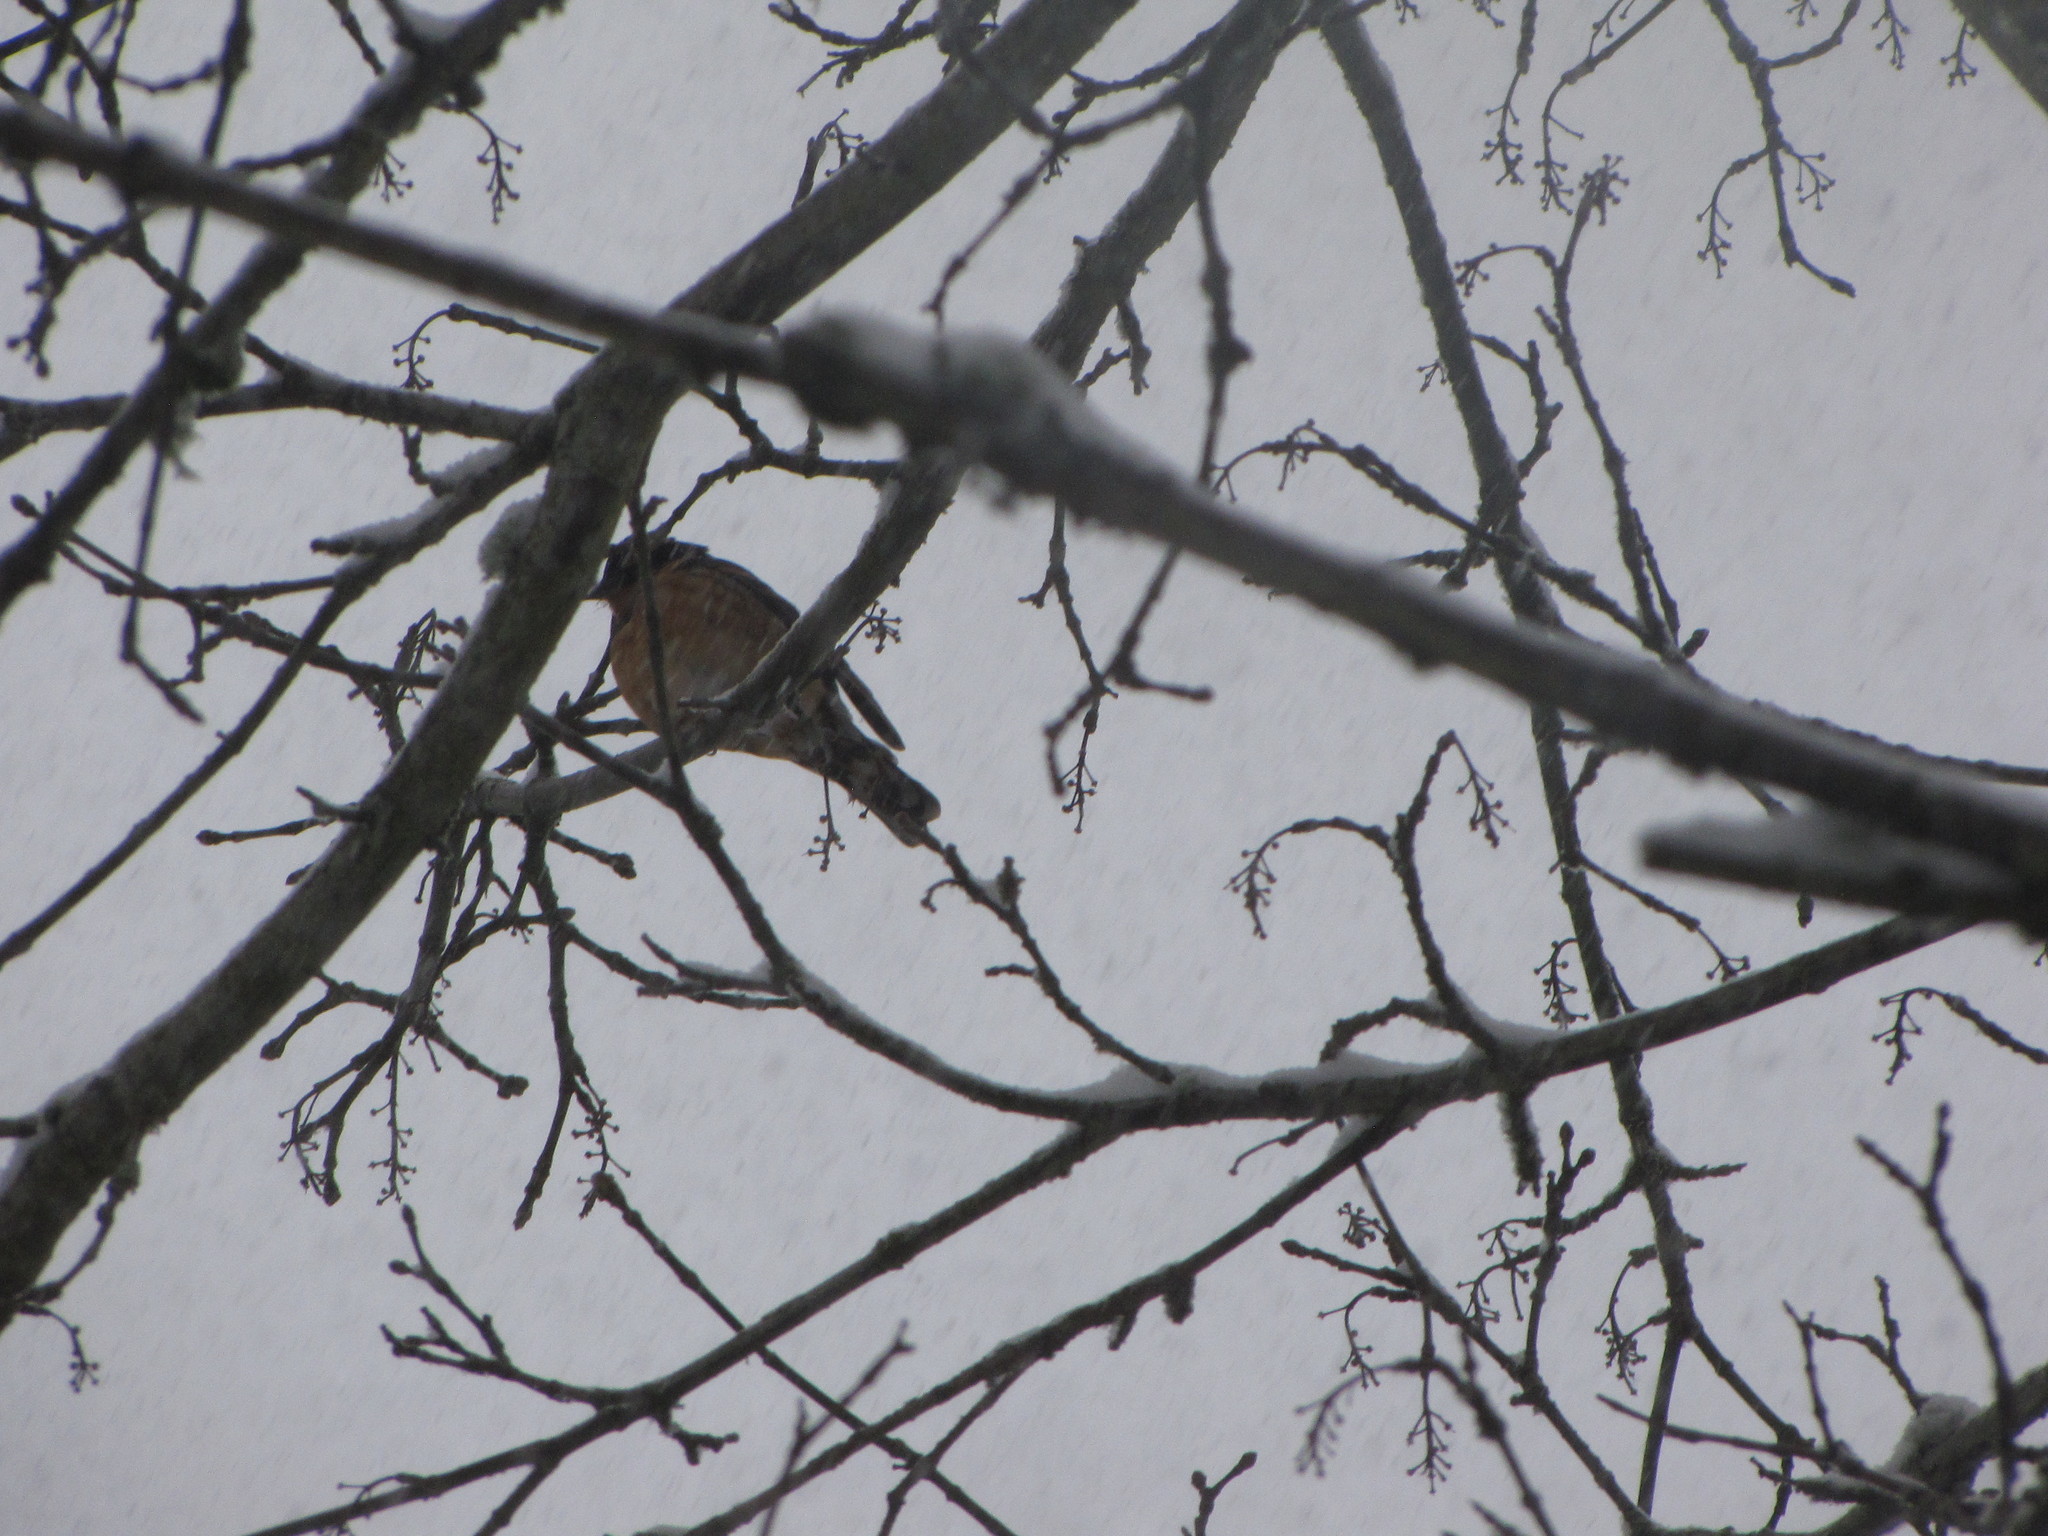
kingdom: Animalia
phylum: Chordata
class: Aves
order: Passeriformes
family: Turdidae
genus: Ixoreus
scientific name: Ixoreus naevius
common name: Varied thrush
